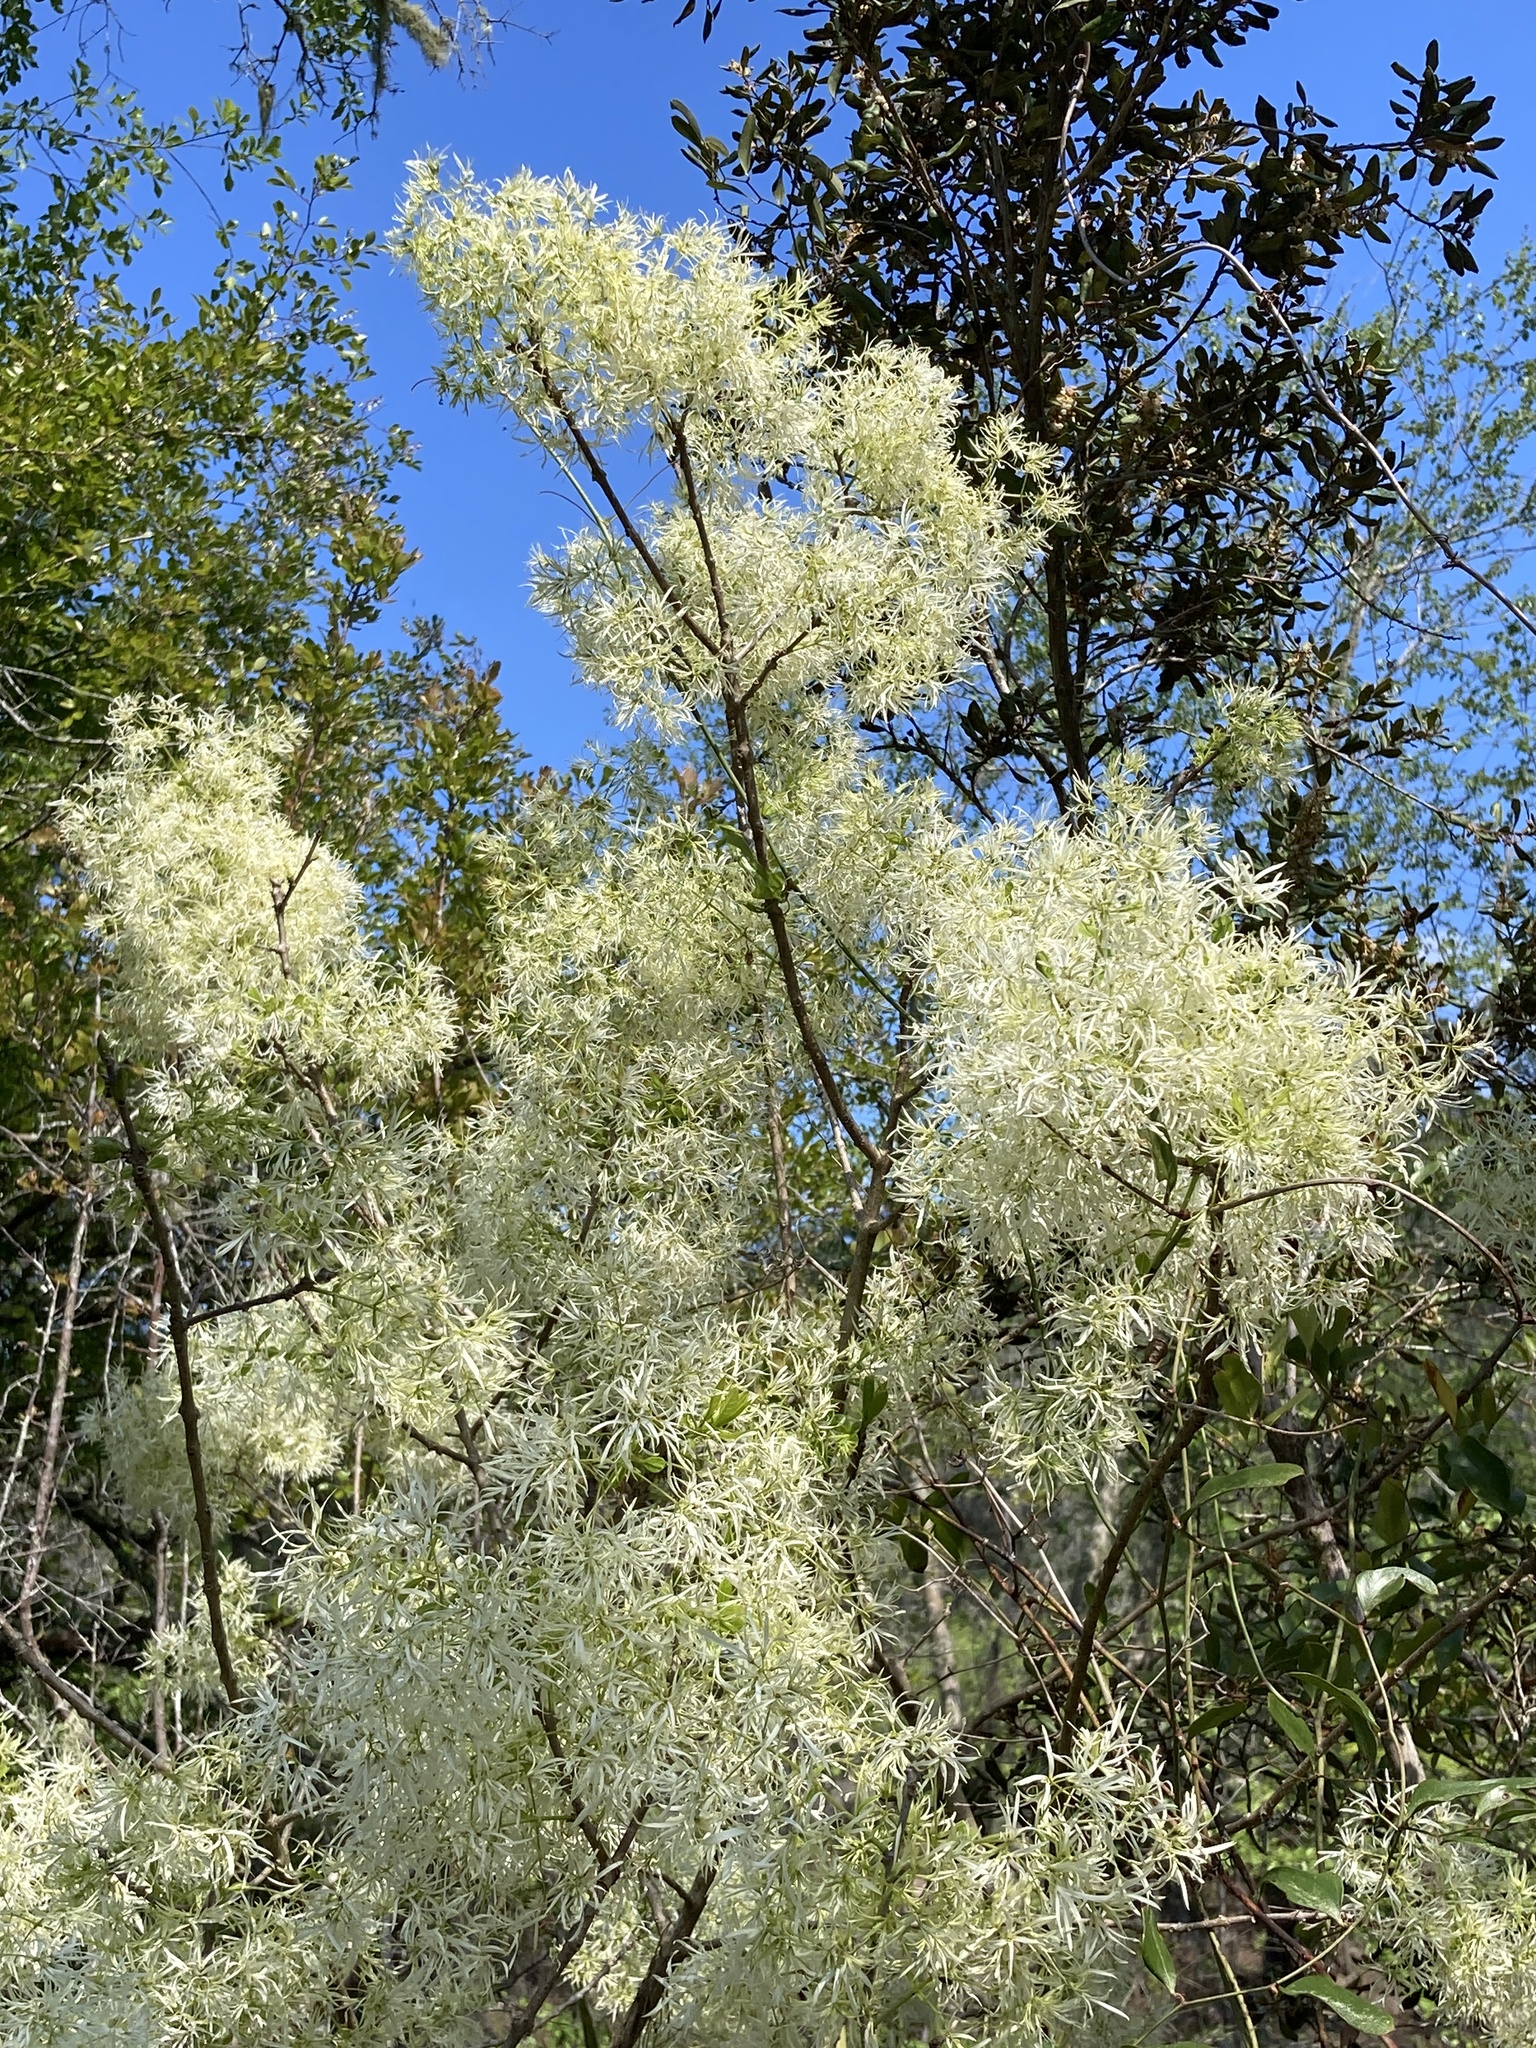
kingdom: Plantae
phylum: Tracheophyta
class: Magnoliopsida
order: Lamiales
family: Oleaceae
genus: Chionanthus
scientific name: Chionanthus virginicus
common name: American fringetree
